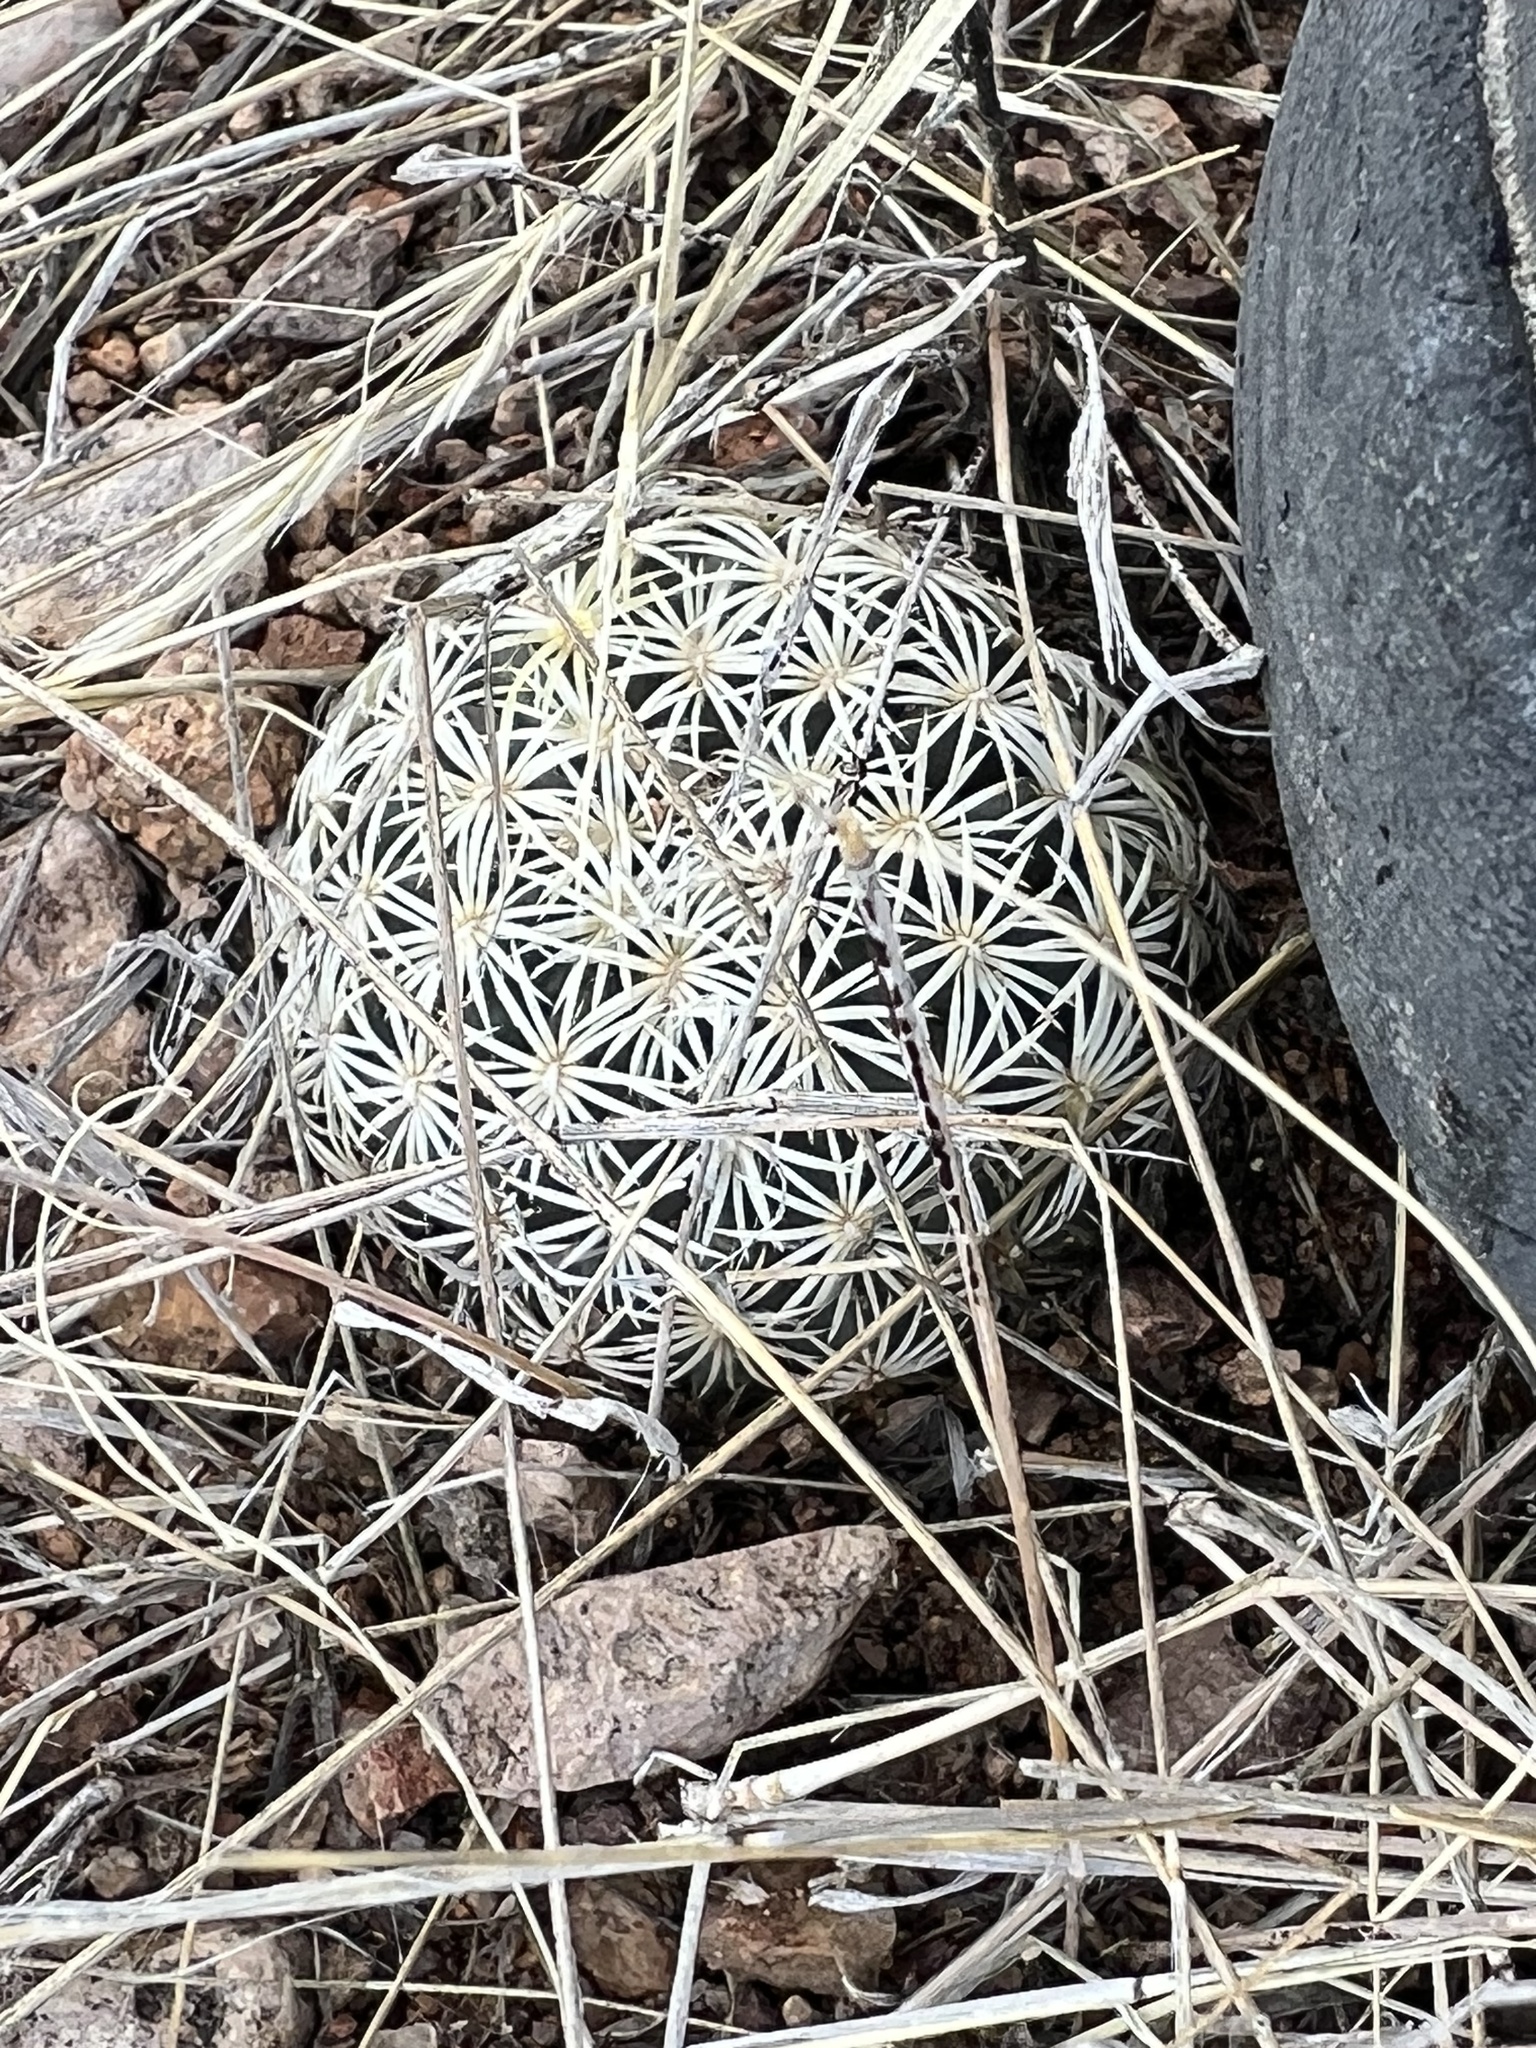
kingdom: Plantae
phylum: Tracheophyta
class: Magnoliopsida
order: Caryophyllales
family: Cactaceae
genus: Sclerocactus
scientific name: Sclerocactus johnsonii
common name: Eight-spine fishhook cactus
